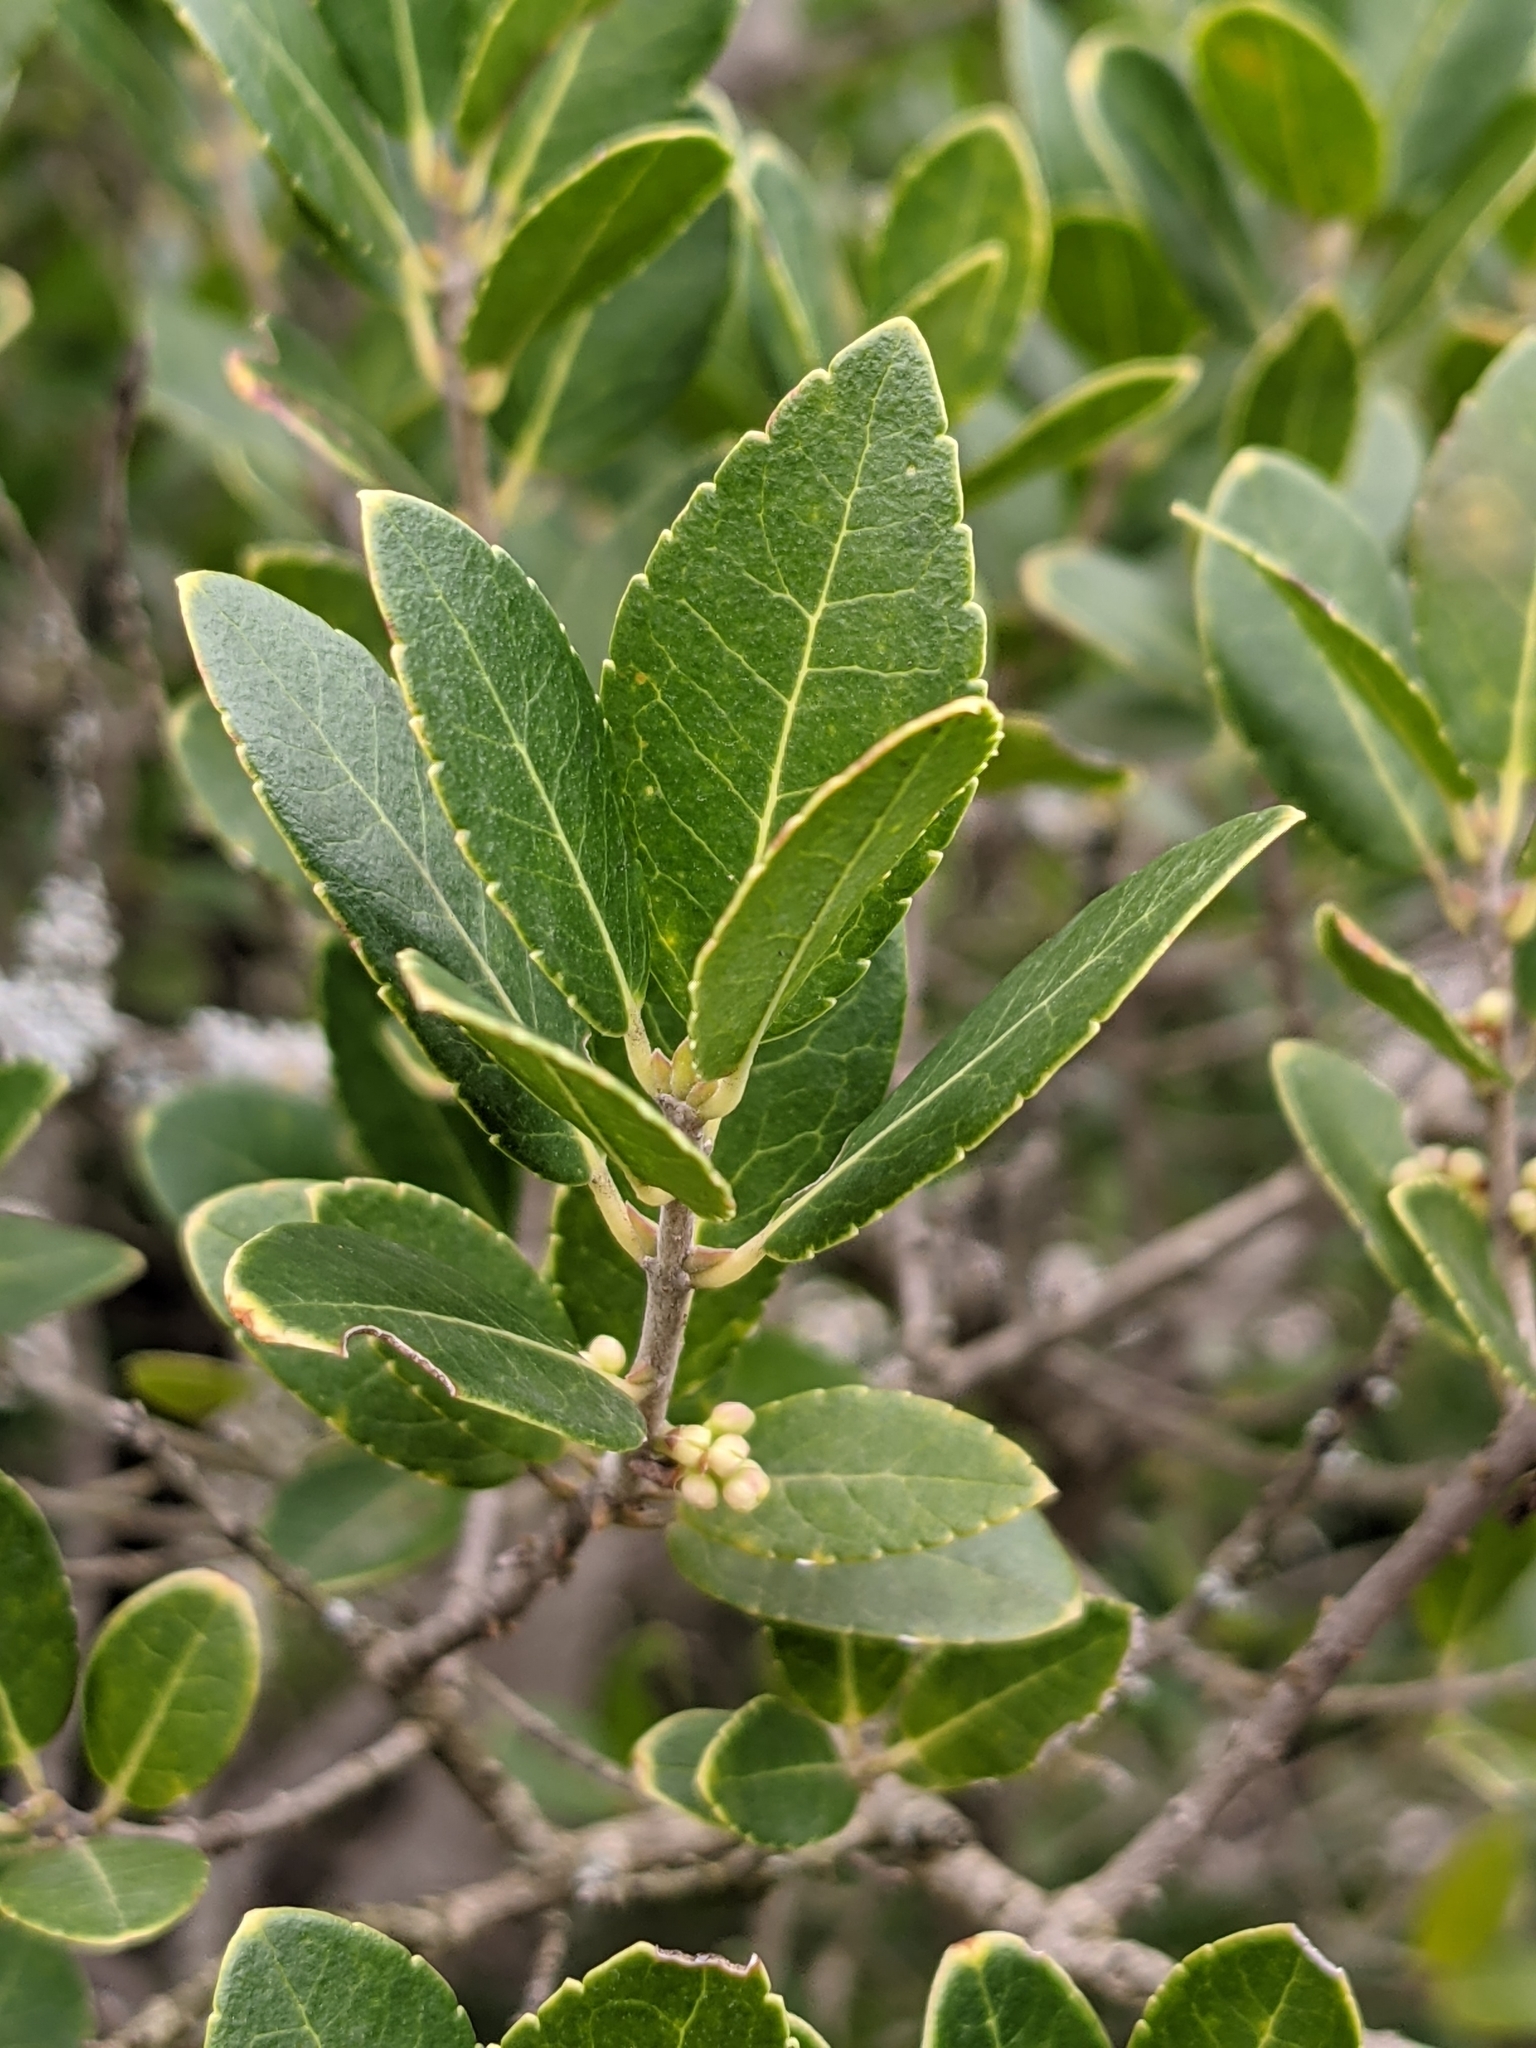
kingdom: Plantae
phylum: Tracheophyta
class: Magnoliopsida
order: Lamiales
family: Oleaceae
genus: Phillyrea
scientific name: Phillyrea latifolia
